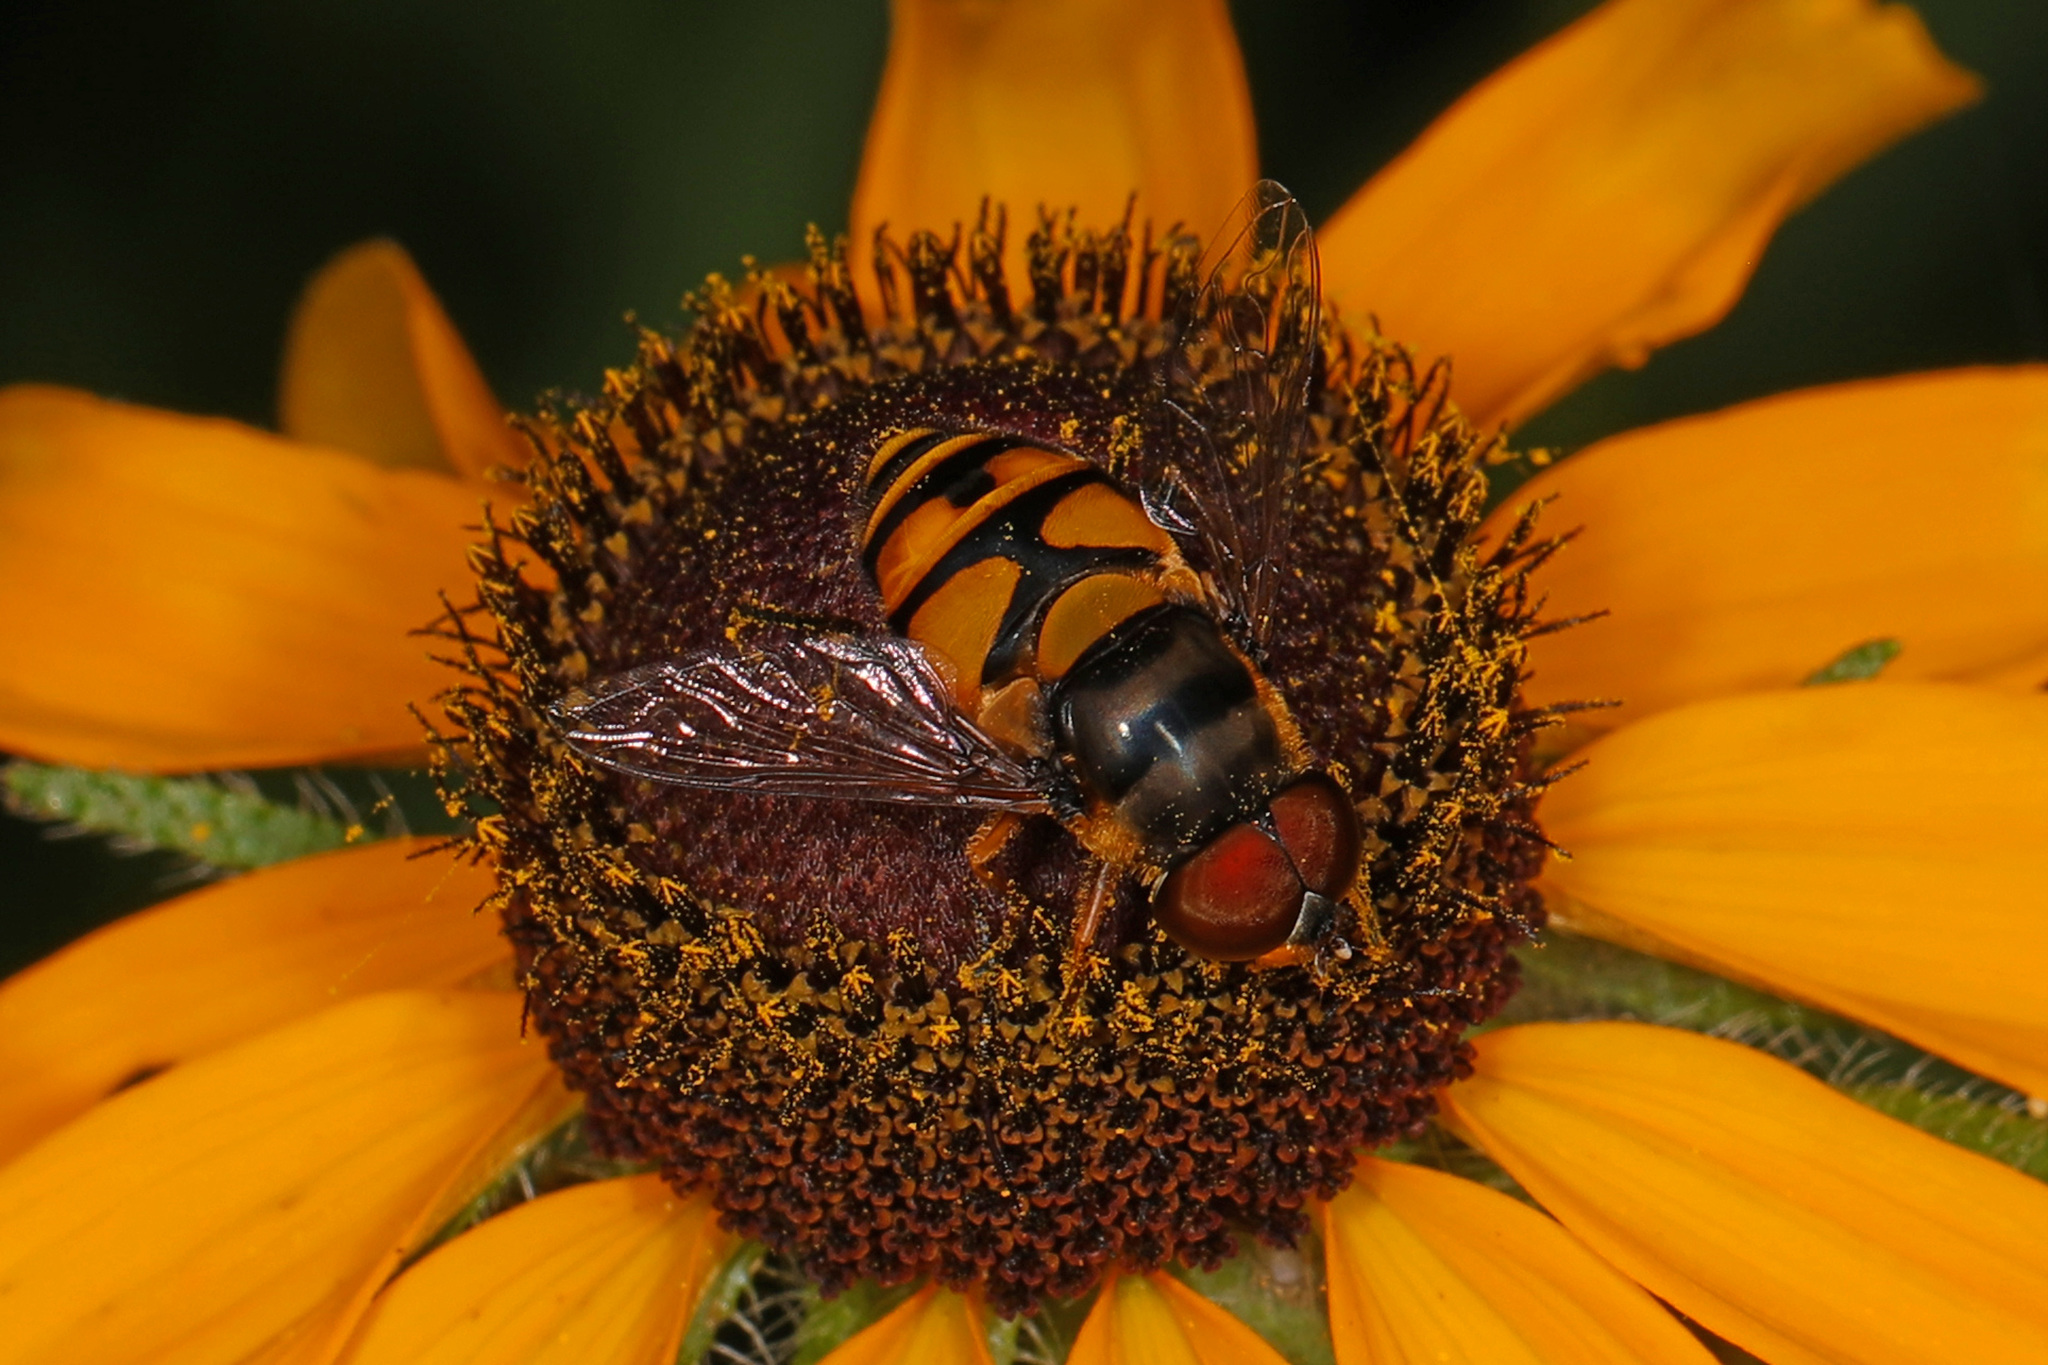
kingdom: Animalia
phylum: Arthropoda
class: Insecta
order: Diptera
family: Syrphidae
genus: Eristalis
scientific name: Eristalis transversa
